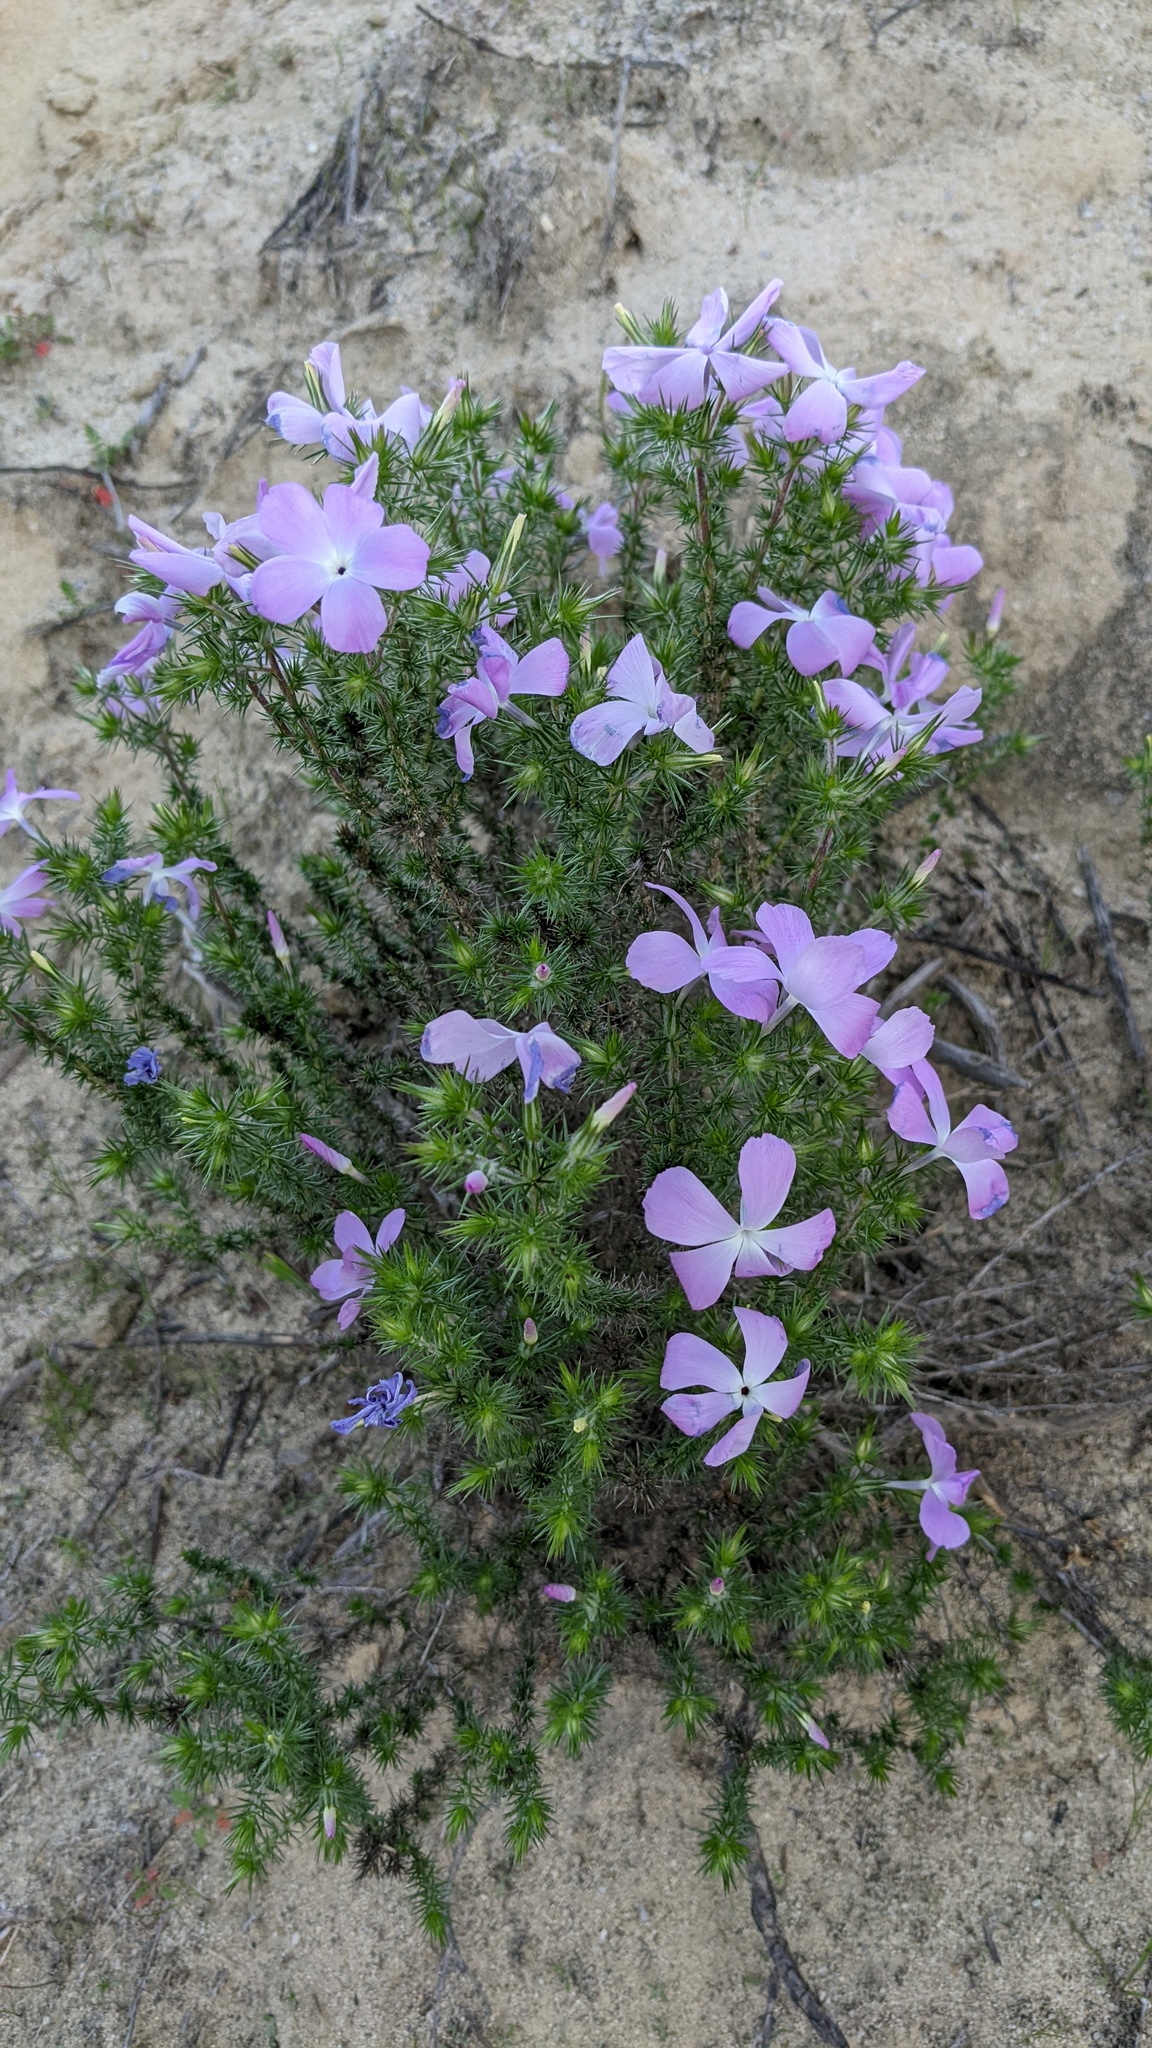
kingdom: Plantae
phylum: Tracheophyta
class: Magnoliopsida
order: Ericales
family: Polemoniaceae
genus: Linanthus
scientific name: Linanthus californicus
